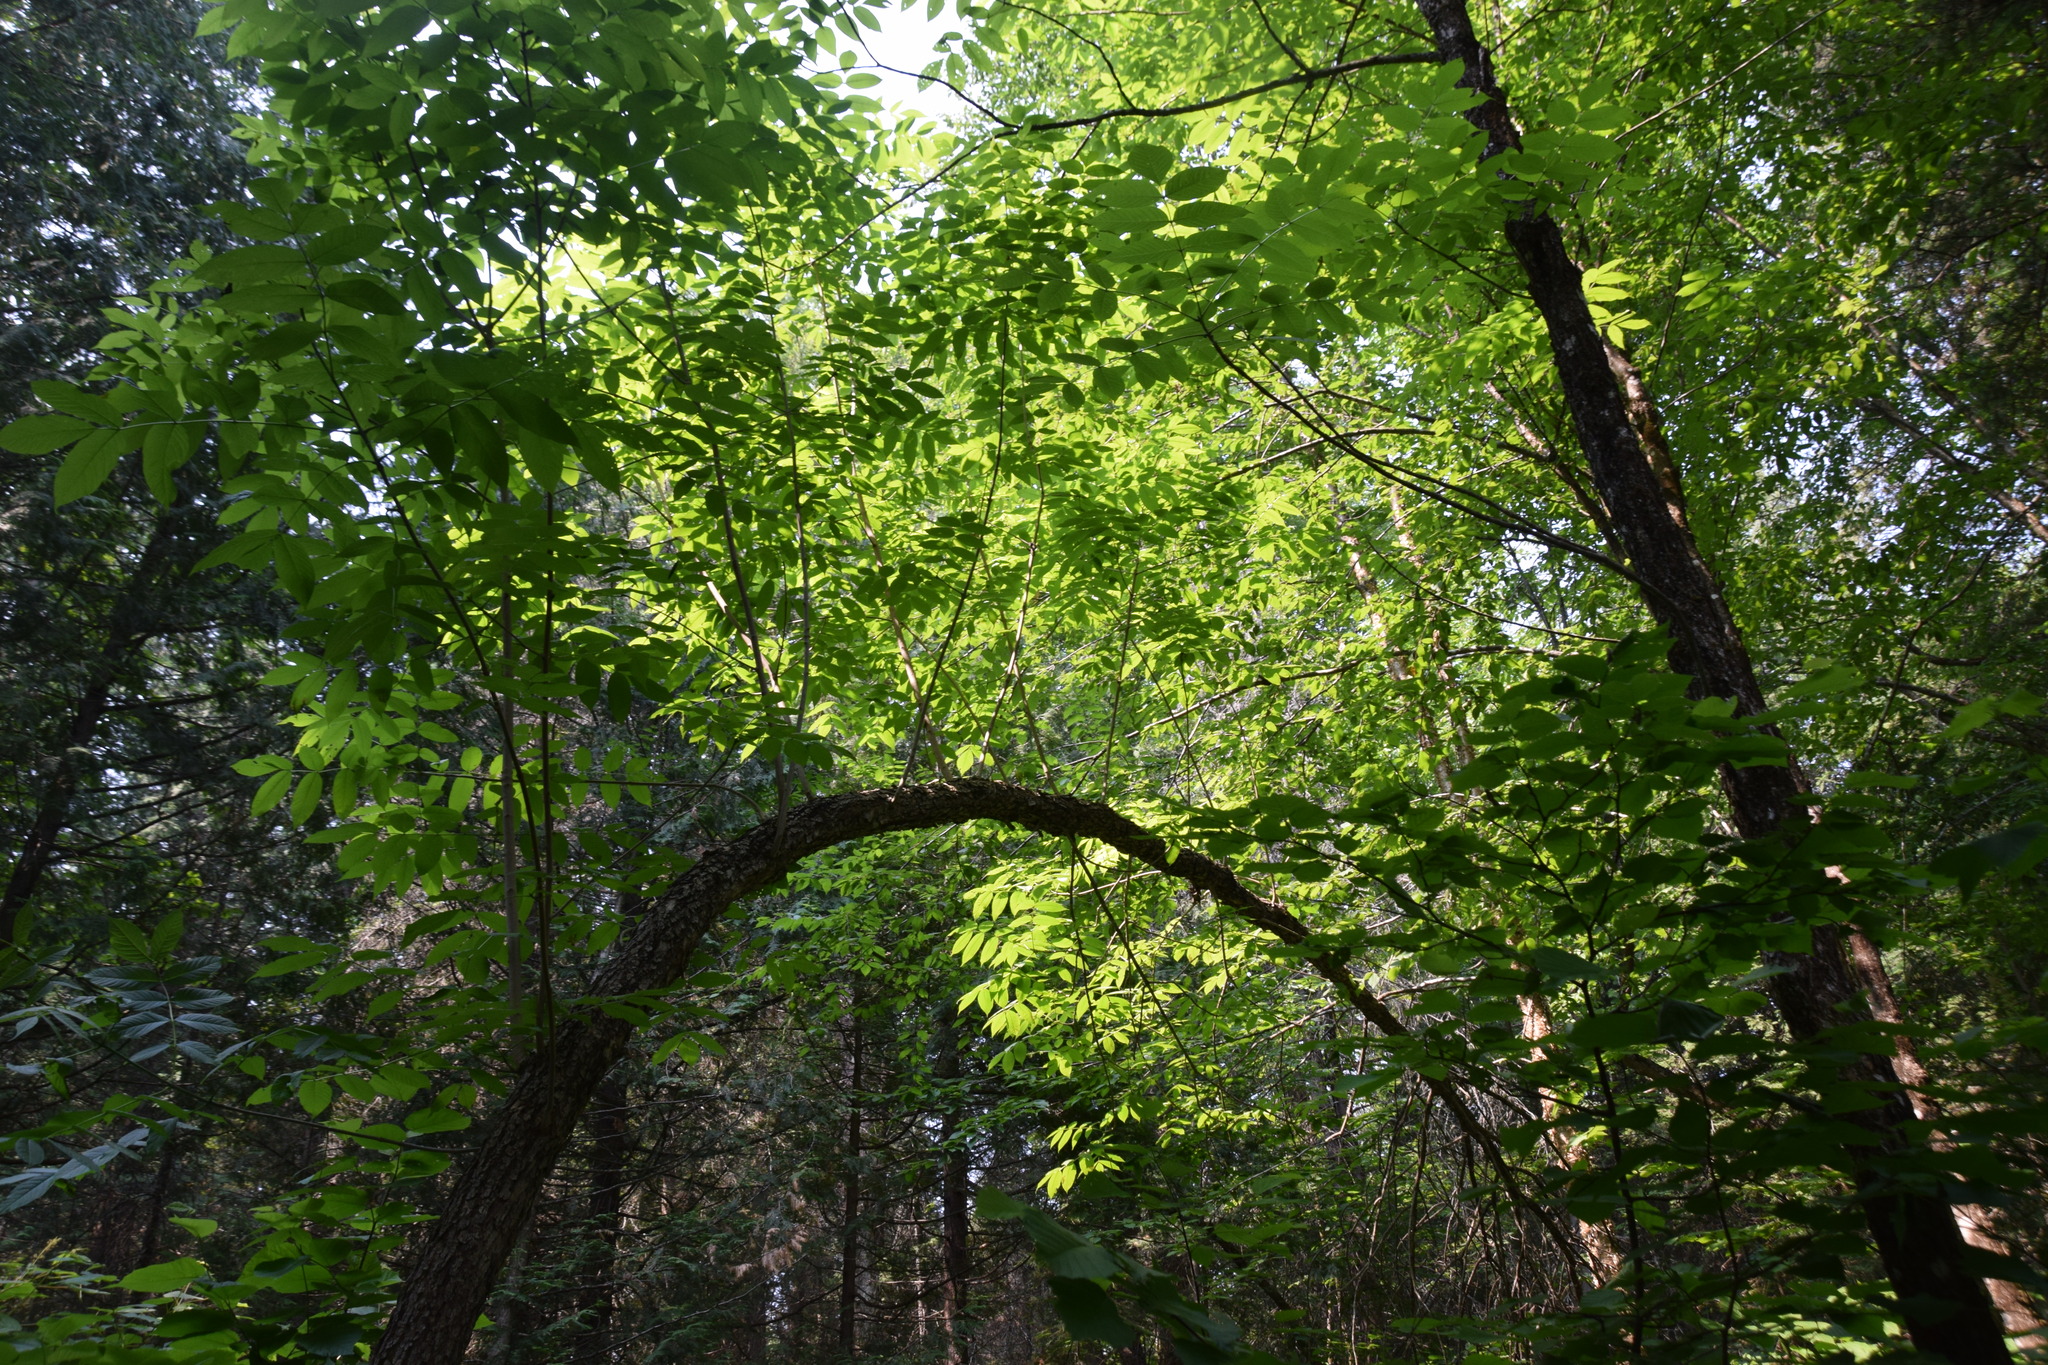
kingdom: Plantae
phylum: Tracheophyta
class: Magnoliopsida
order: Lamiales
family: Oleaceae
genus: Fraxinus
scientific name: Fraxinus nigra
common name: Black ash
